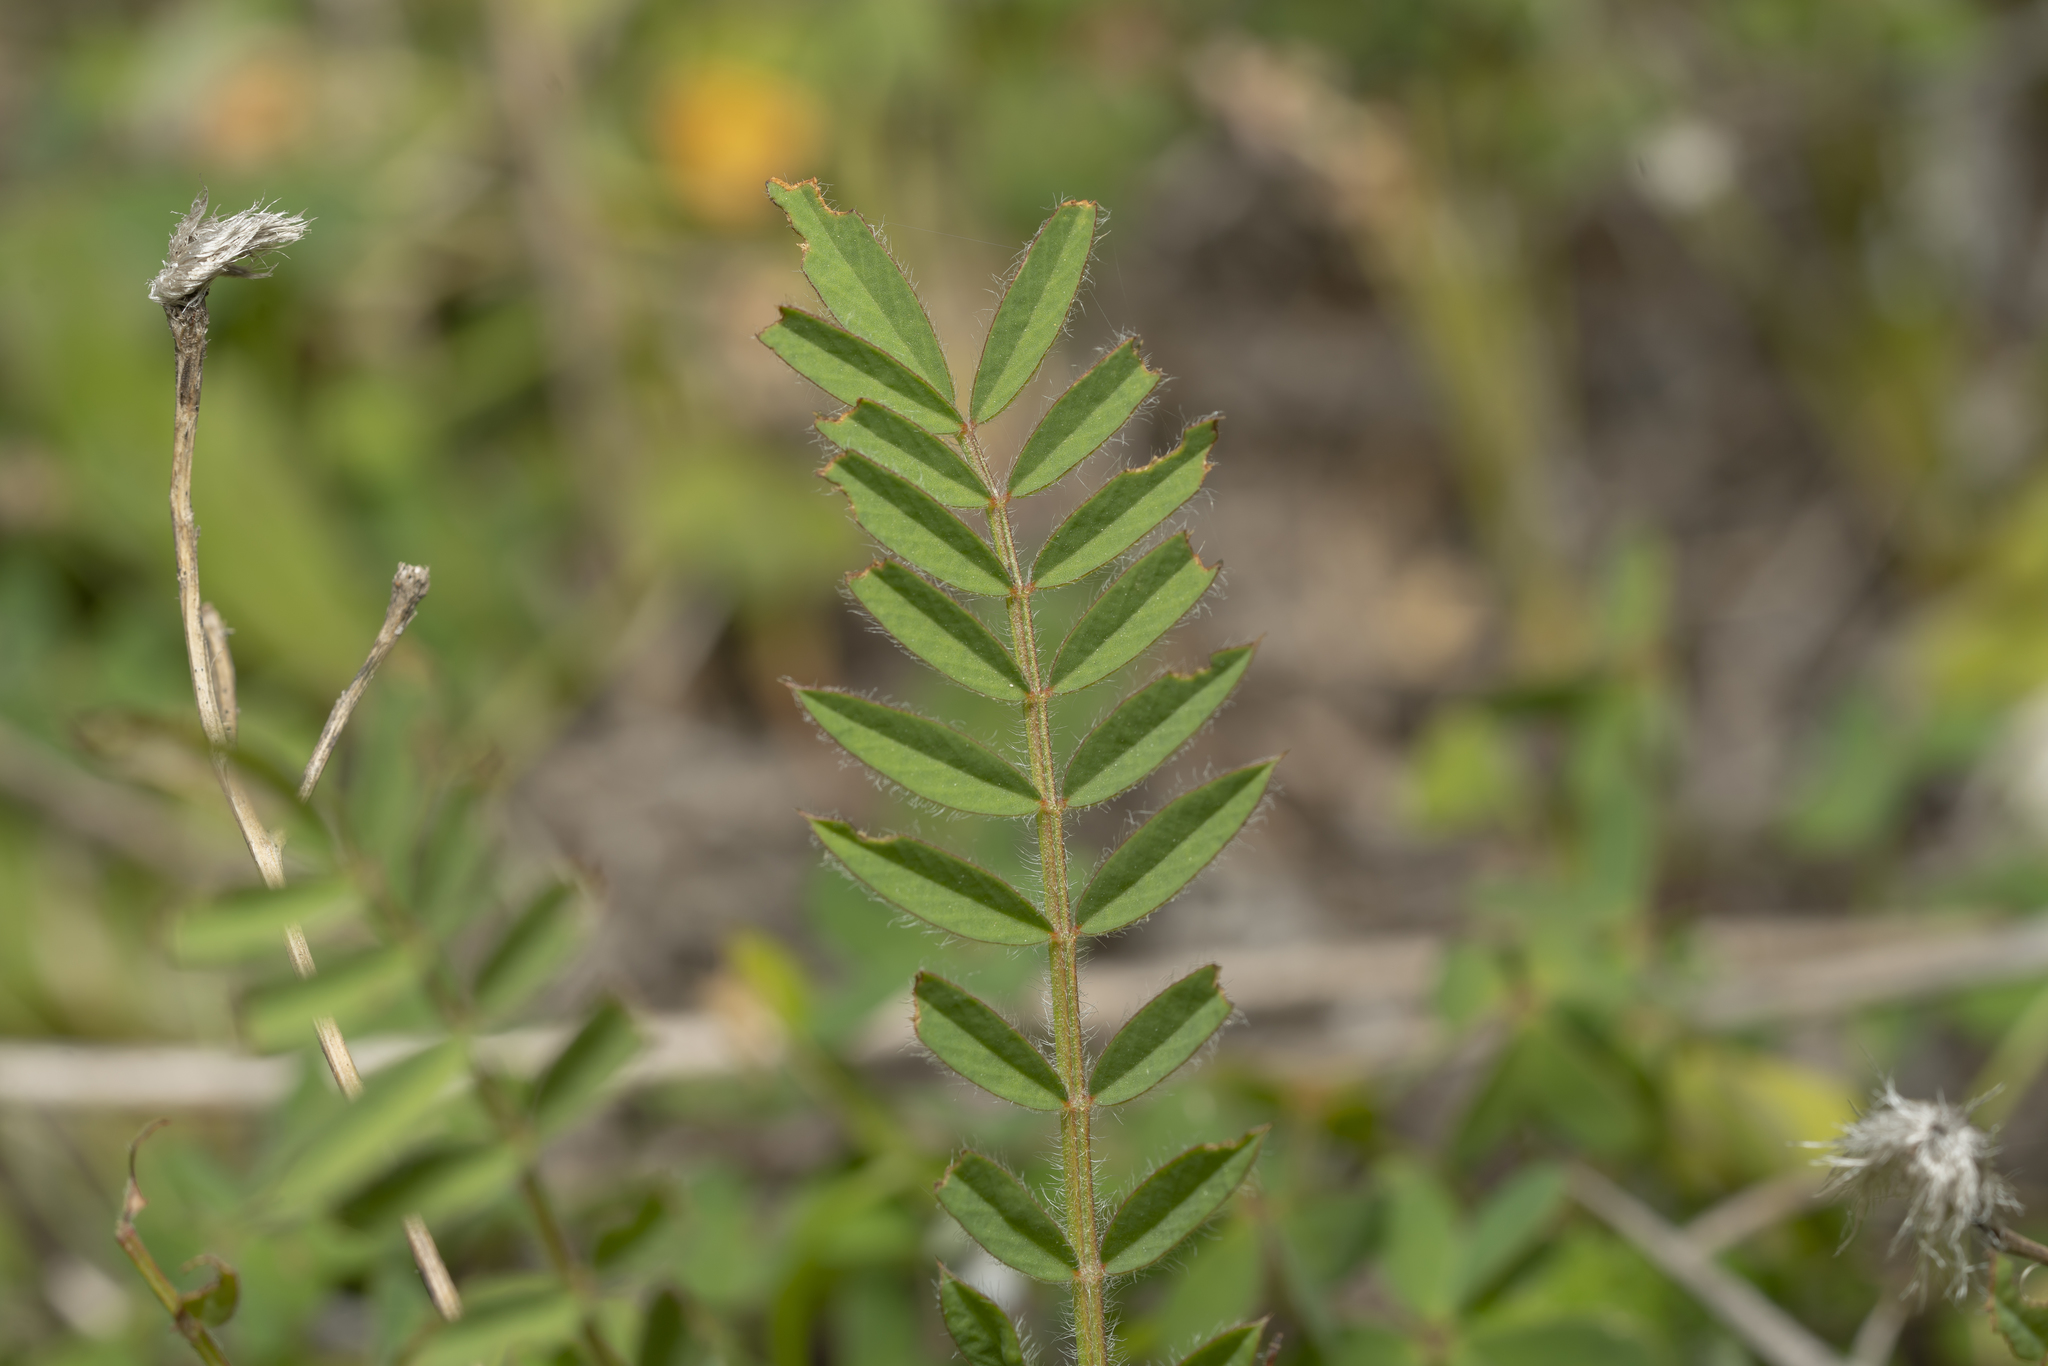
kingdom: Plantae
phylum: Tracheophyta
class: Magnoliopsida
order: Fabales
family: Fabaceae
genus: Onobrychis
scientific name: Onobrychis
